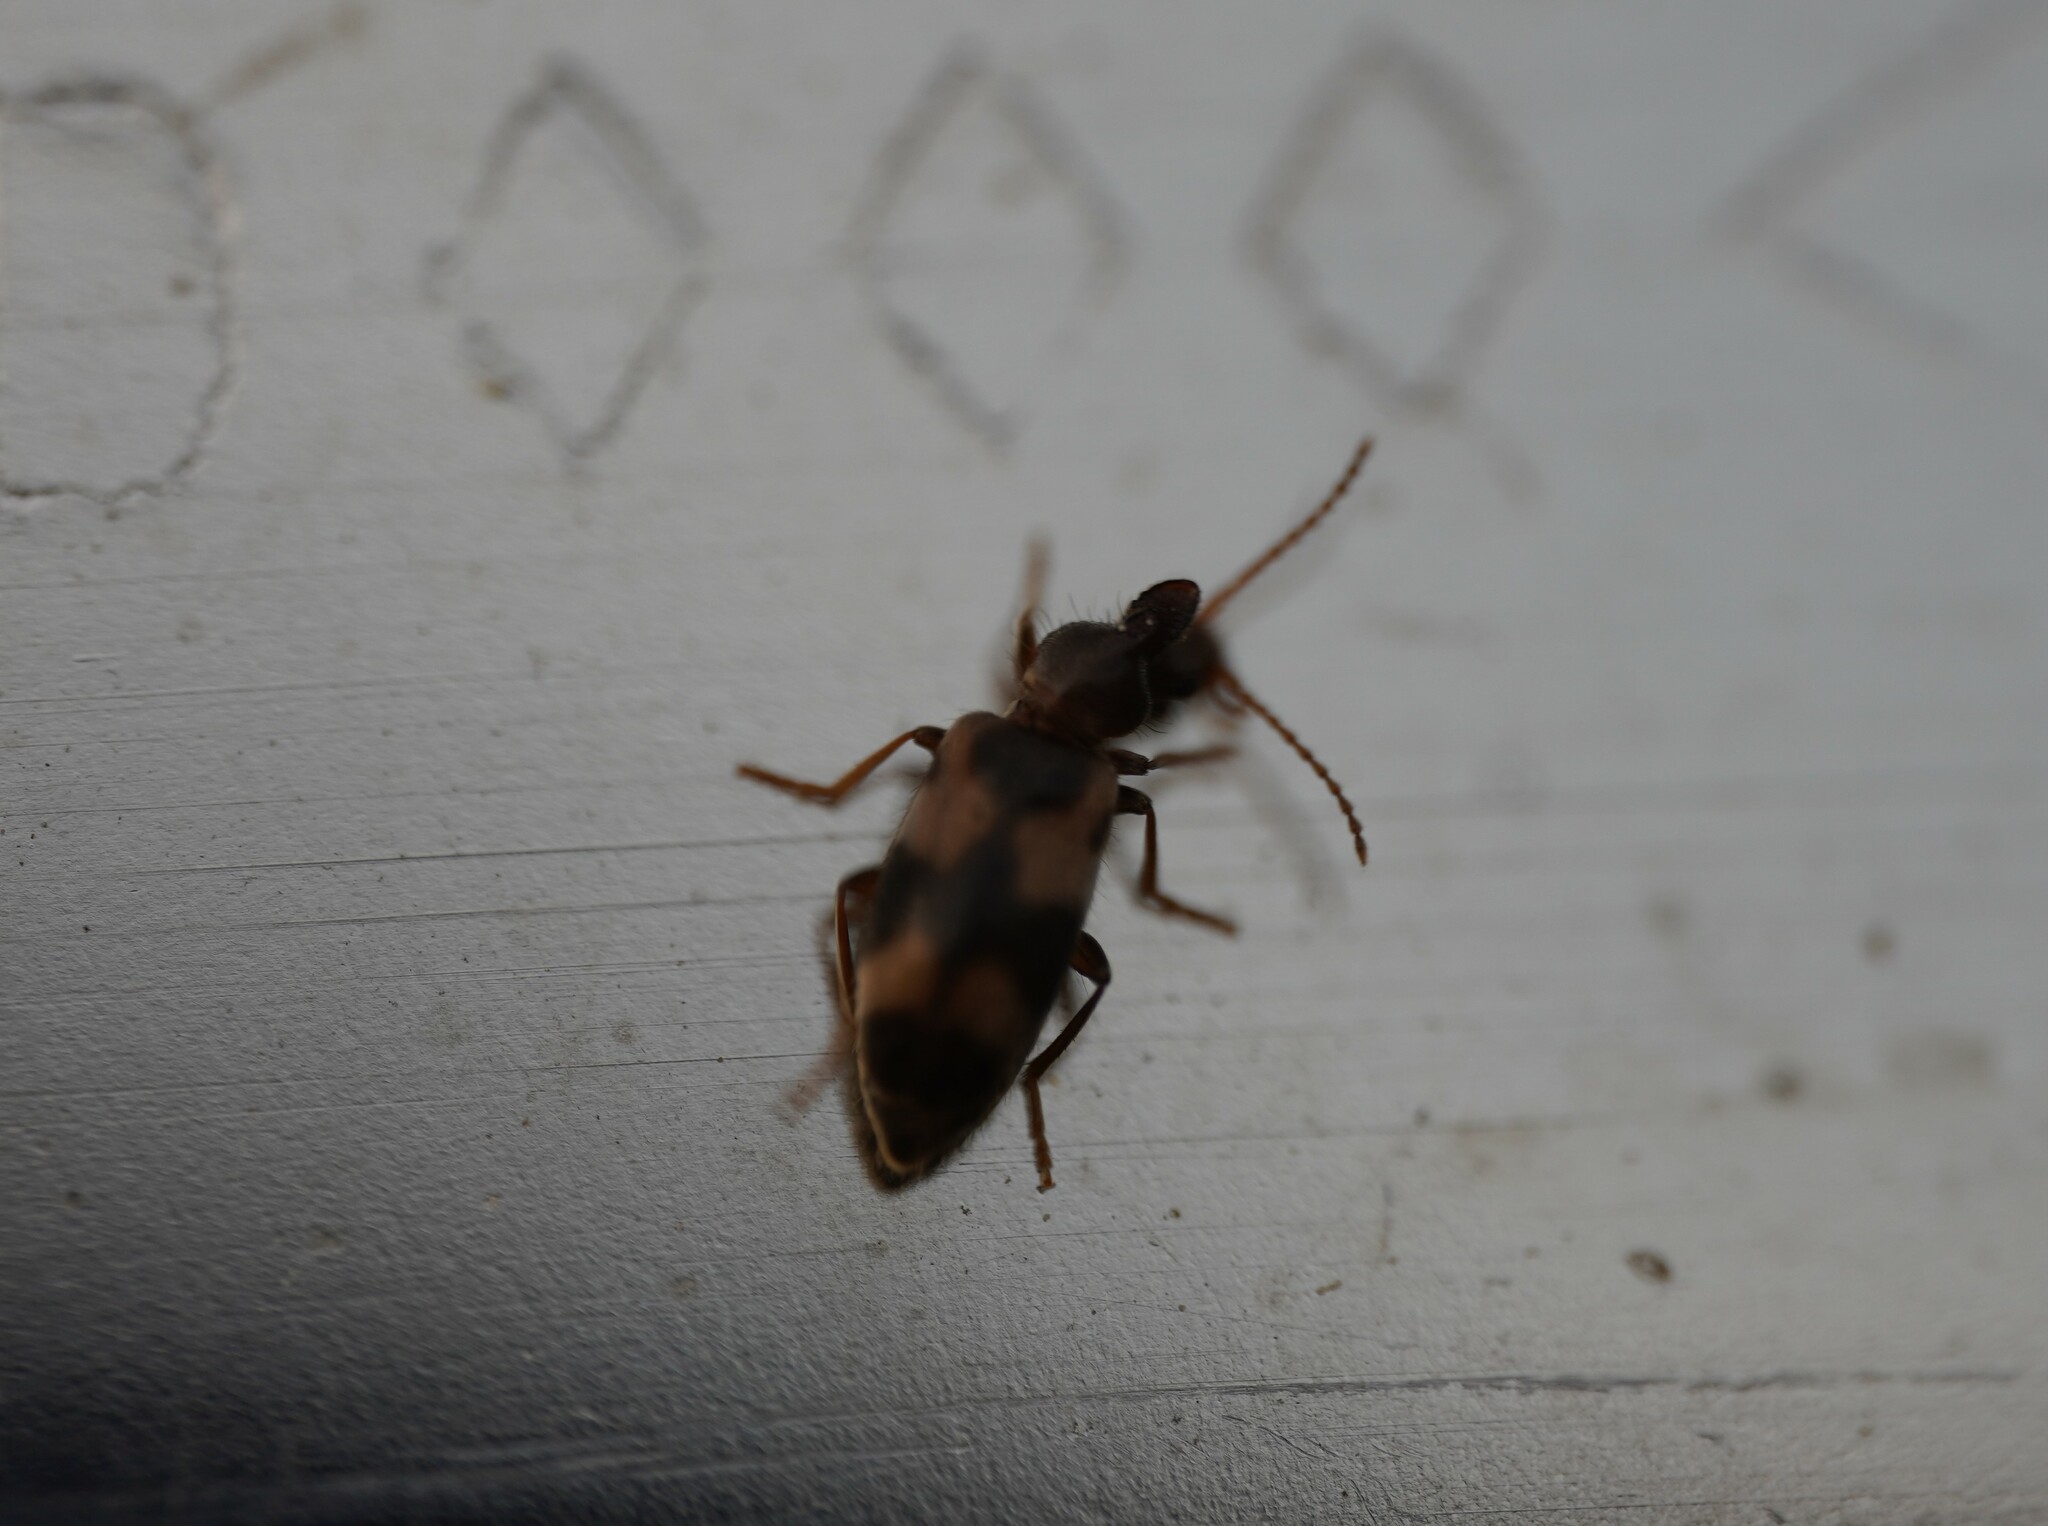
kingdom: Animalia
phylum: Arthropoda
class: Insecta
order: Coleoptera
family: Anthicidae
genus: Notoxus
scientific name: Notoxus trifasciatus
